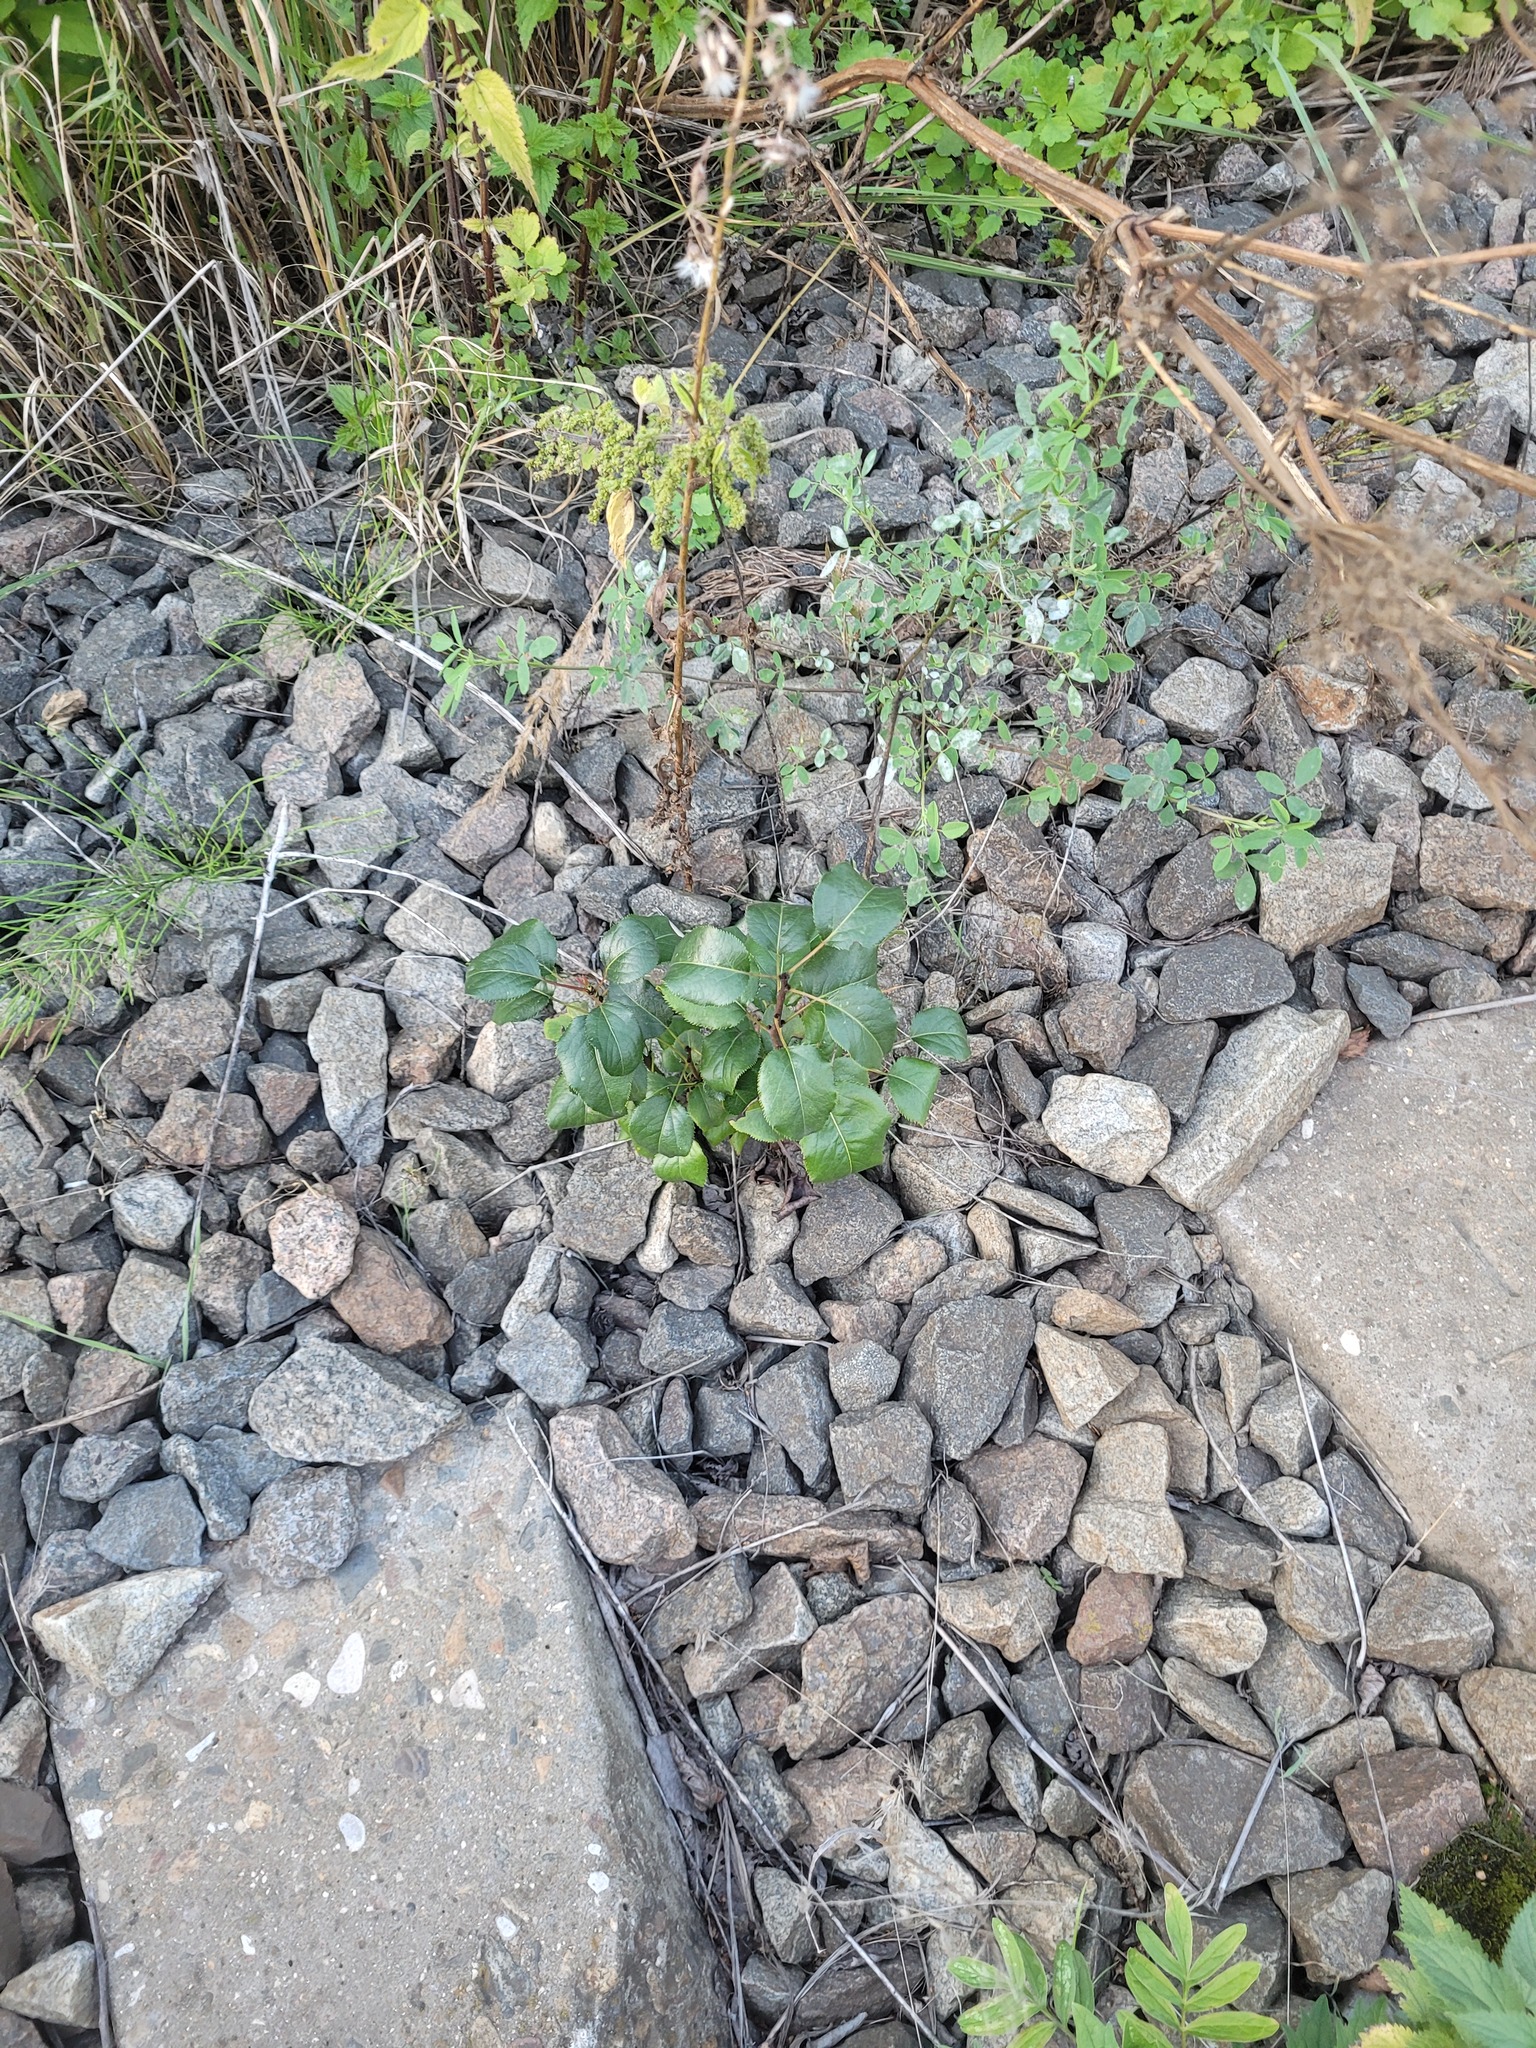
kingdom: Plantae
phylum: Tracheophyta
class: Magnoliopsida
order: Rosales
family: Rosaceae
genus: Pyrus
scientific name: Pyrus communis
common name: Pear
